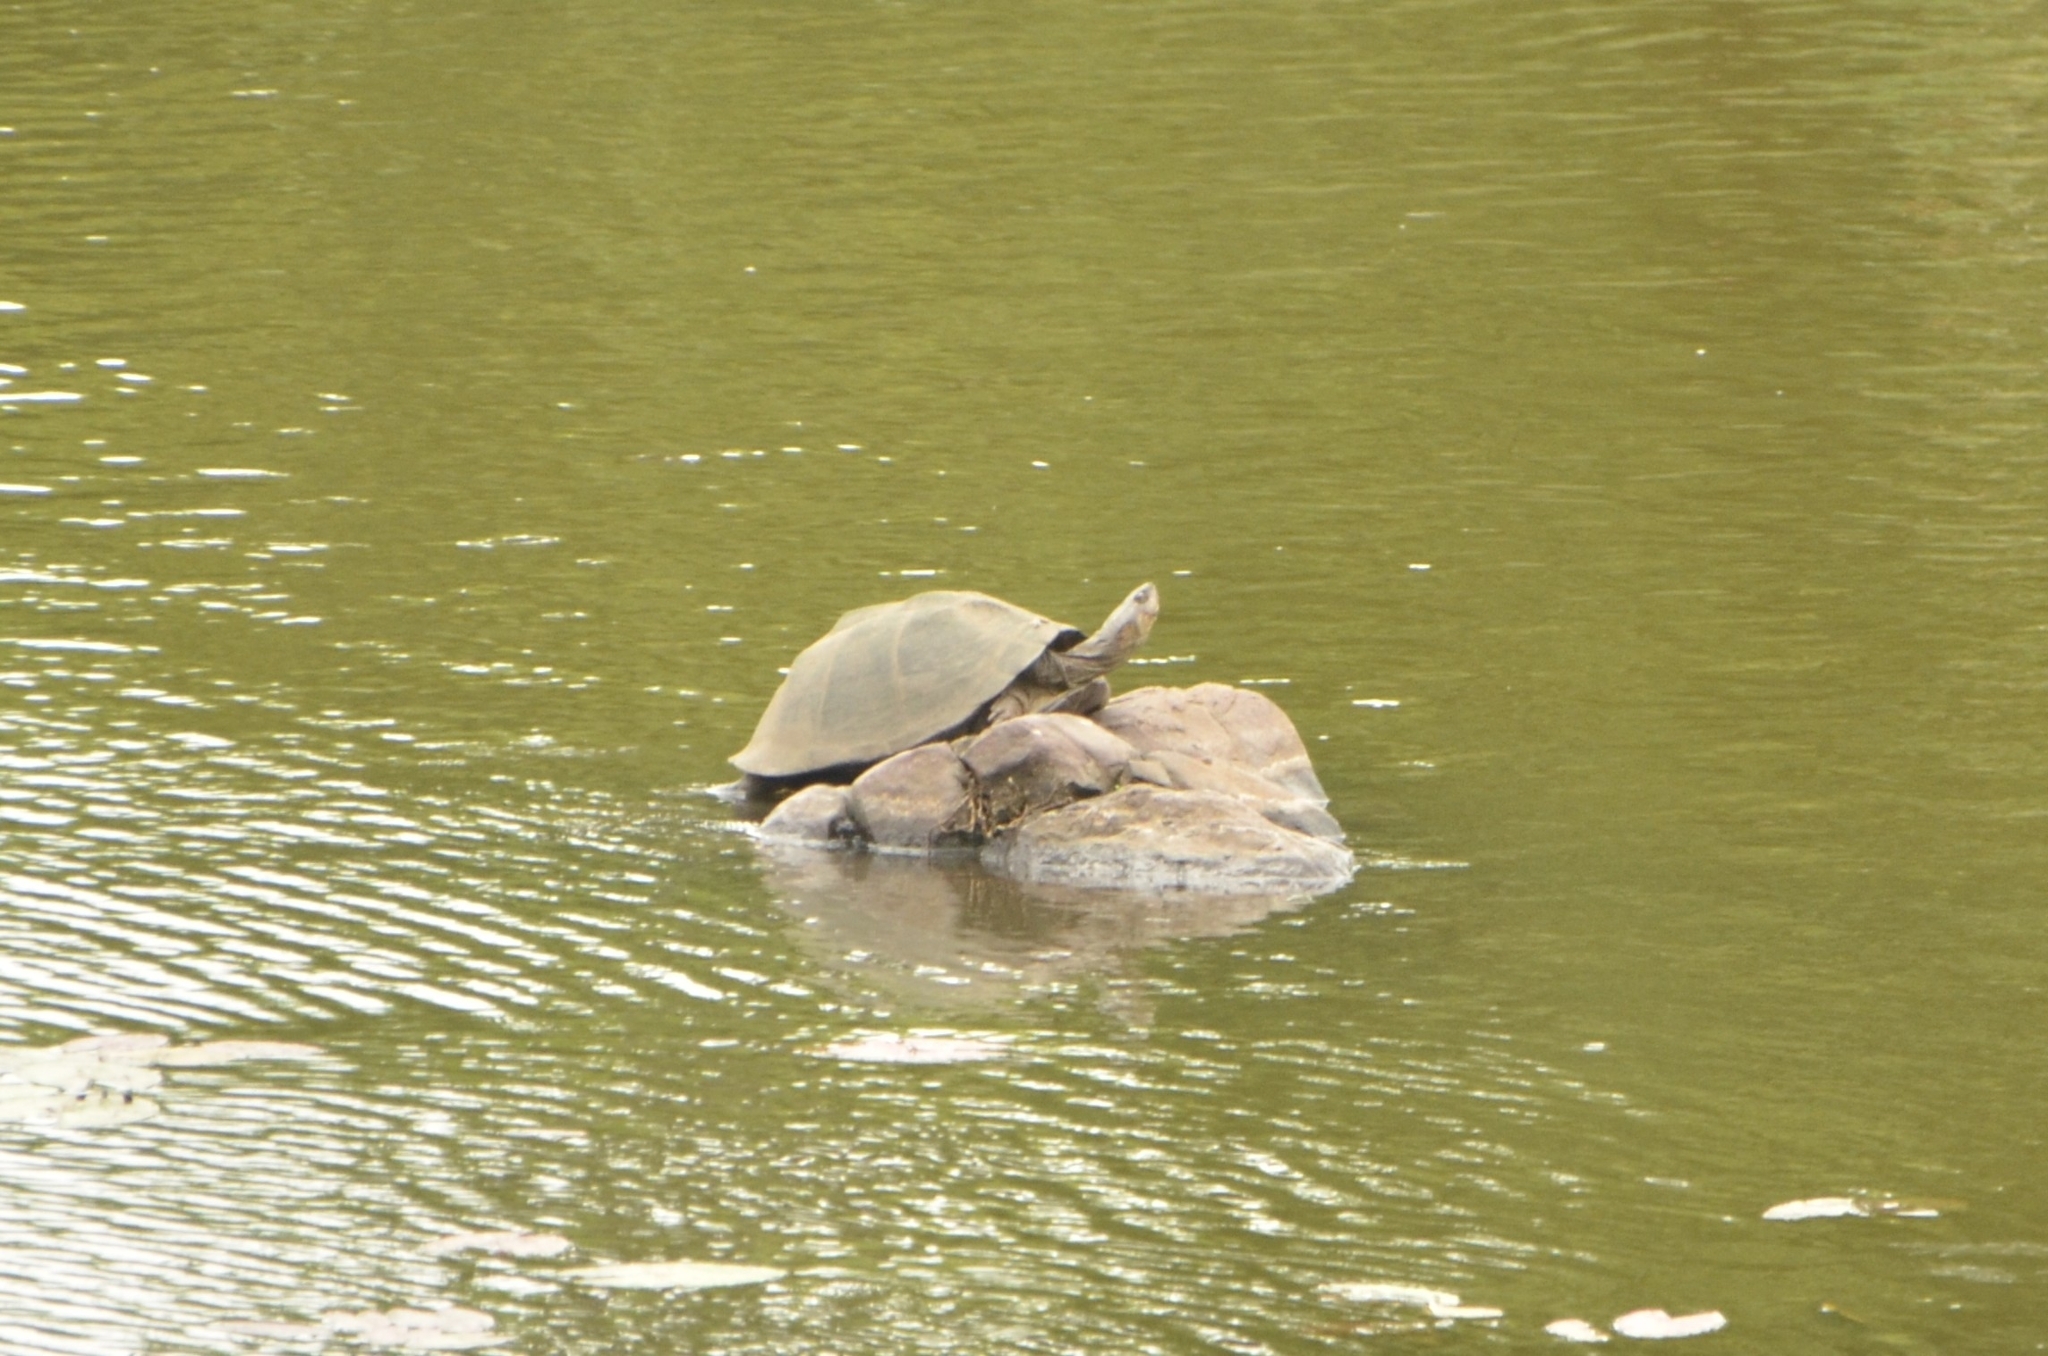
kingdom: Animalia
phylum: Chordata
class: Testudines
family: Pelomedusidae
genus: Pelusios
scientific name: Pelusios sinuatus
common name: Serrated hinged terrapin
